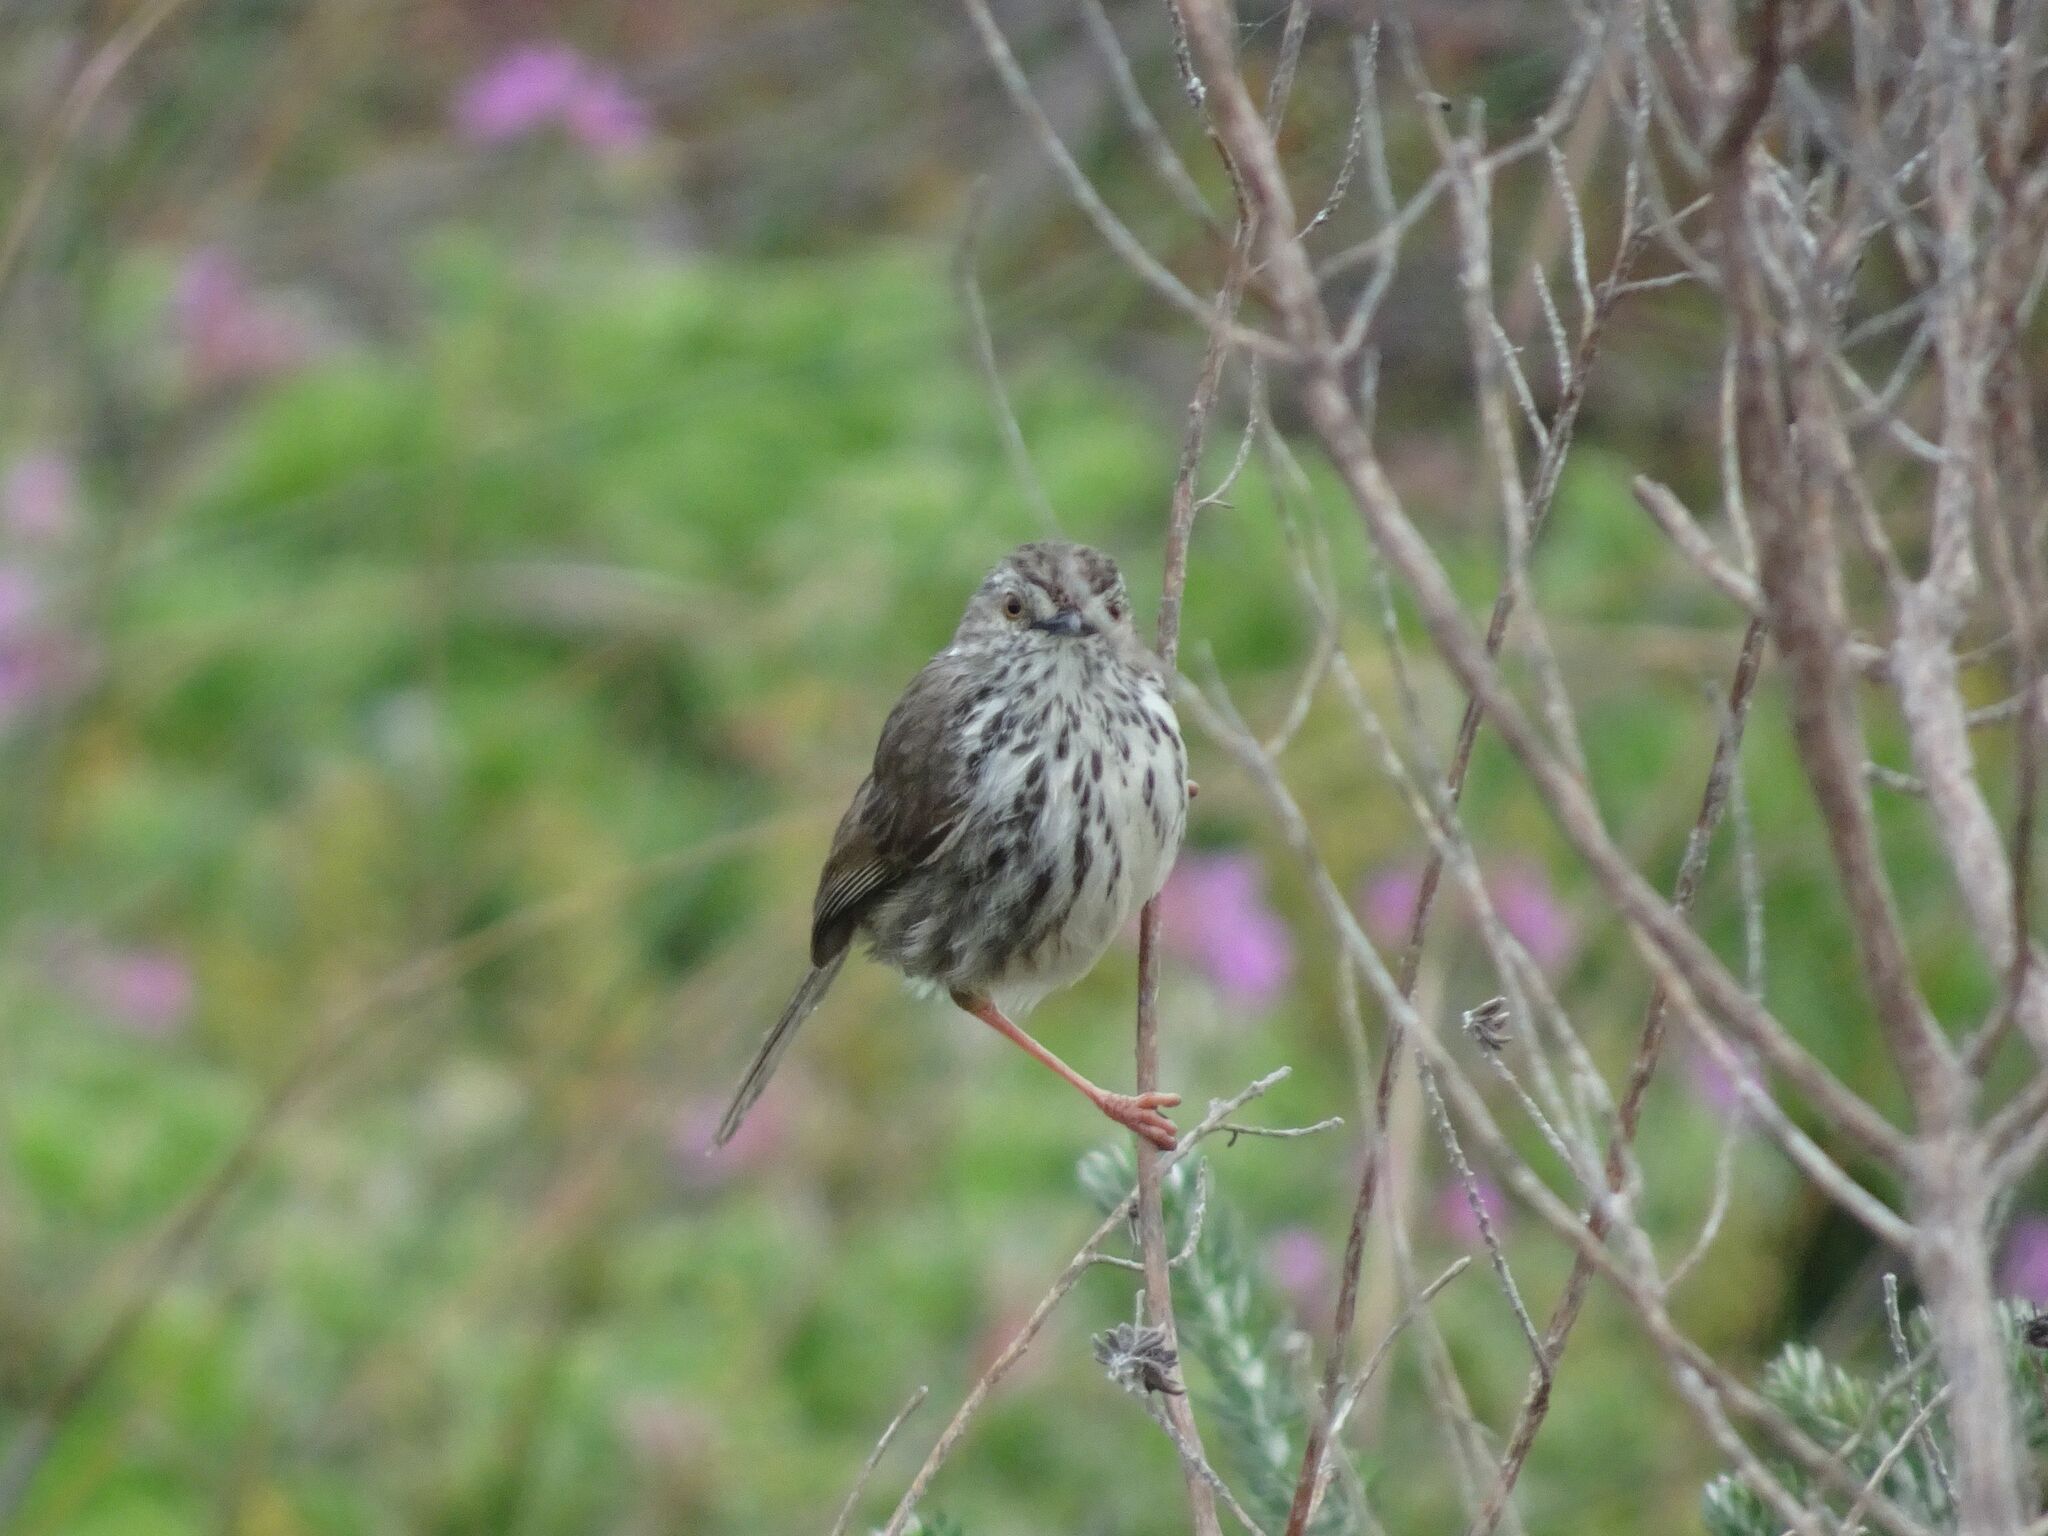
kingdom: Animalia
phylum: Chordata
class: Aves
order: Passeriformes
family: Cisticolidae
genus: Prinia
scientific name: Prinia maculosa
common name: Karoo prinia
